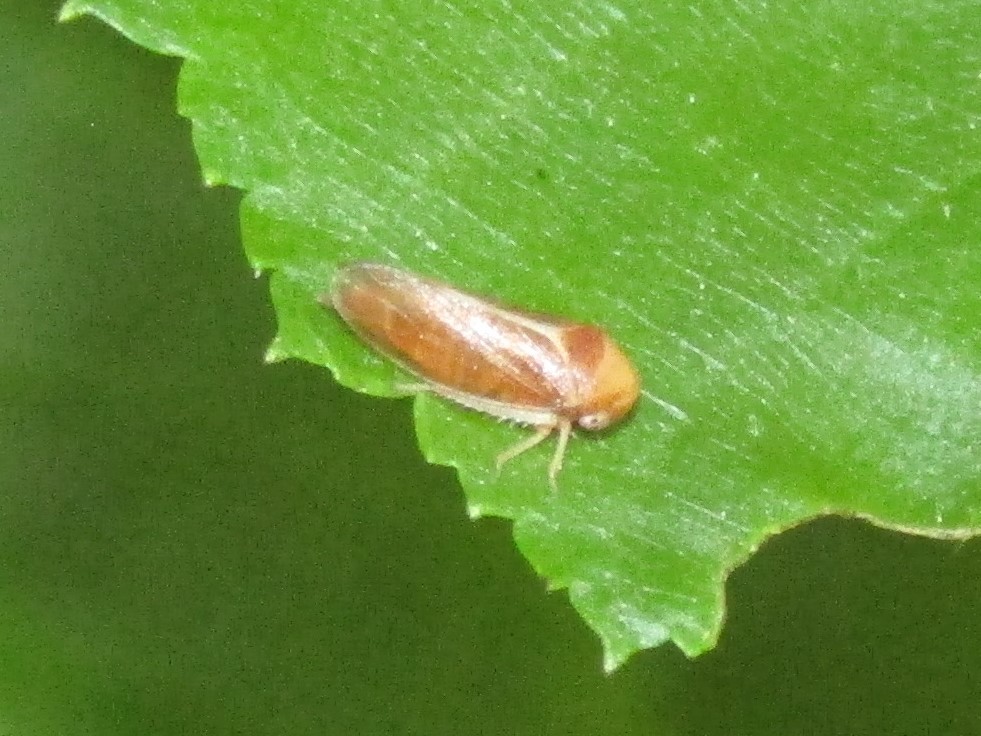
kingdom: Animalia
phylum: Arthropoda
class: Insecta
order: Hemiptera
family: Cicadellidae
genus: Oncopsis
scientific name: Oncopsis nigrinasi
